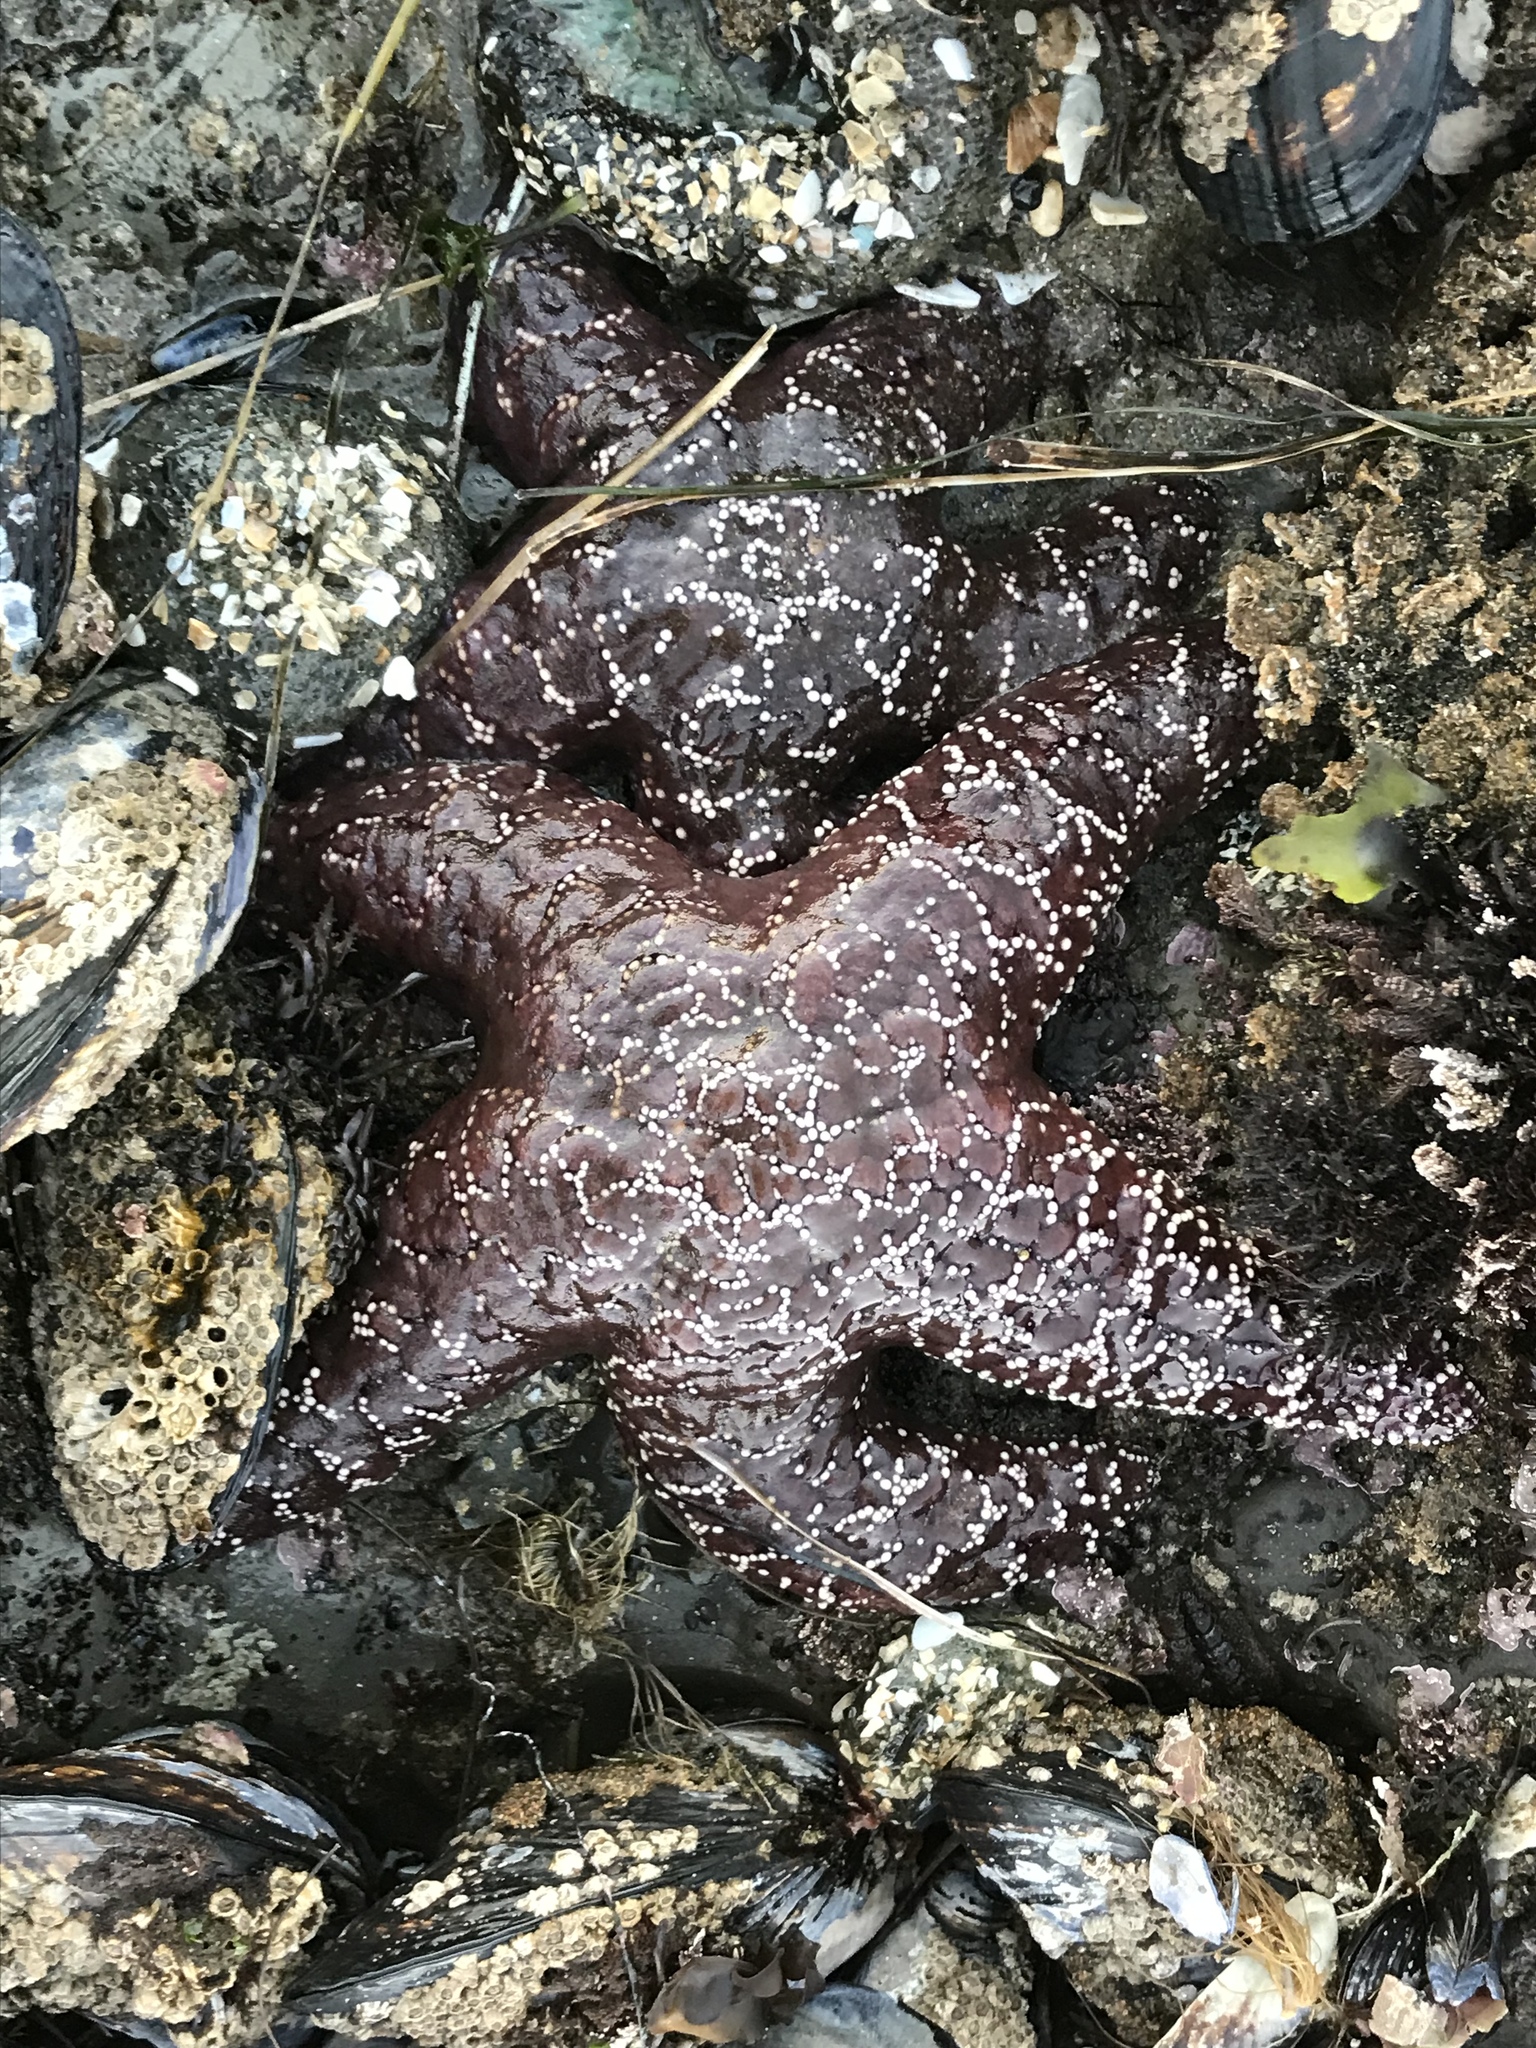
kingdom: Animalia
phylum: Echinodermata
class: Asteroidea
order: Forcipulatida
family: Asteriidae
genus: Pisaster
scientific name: Pisaster ochraceus
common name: Ochre stars
